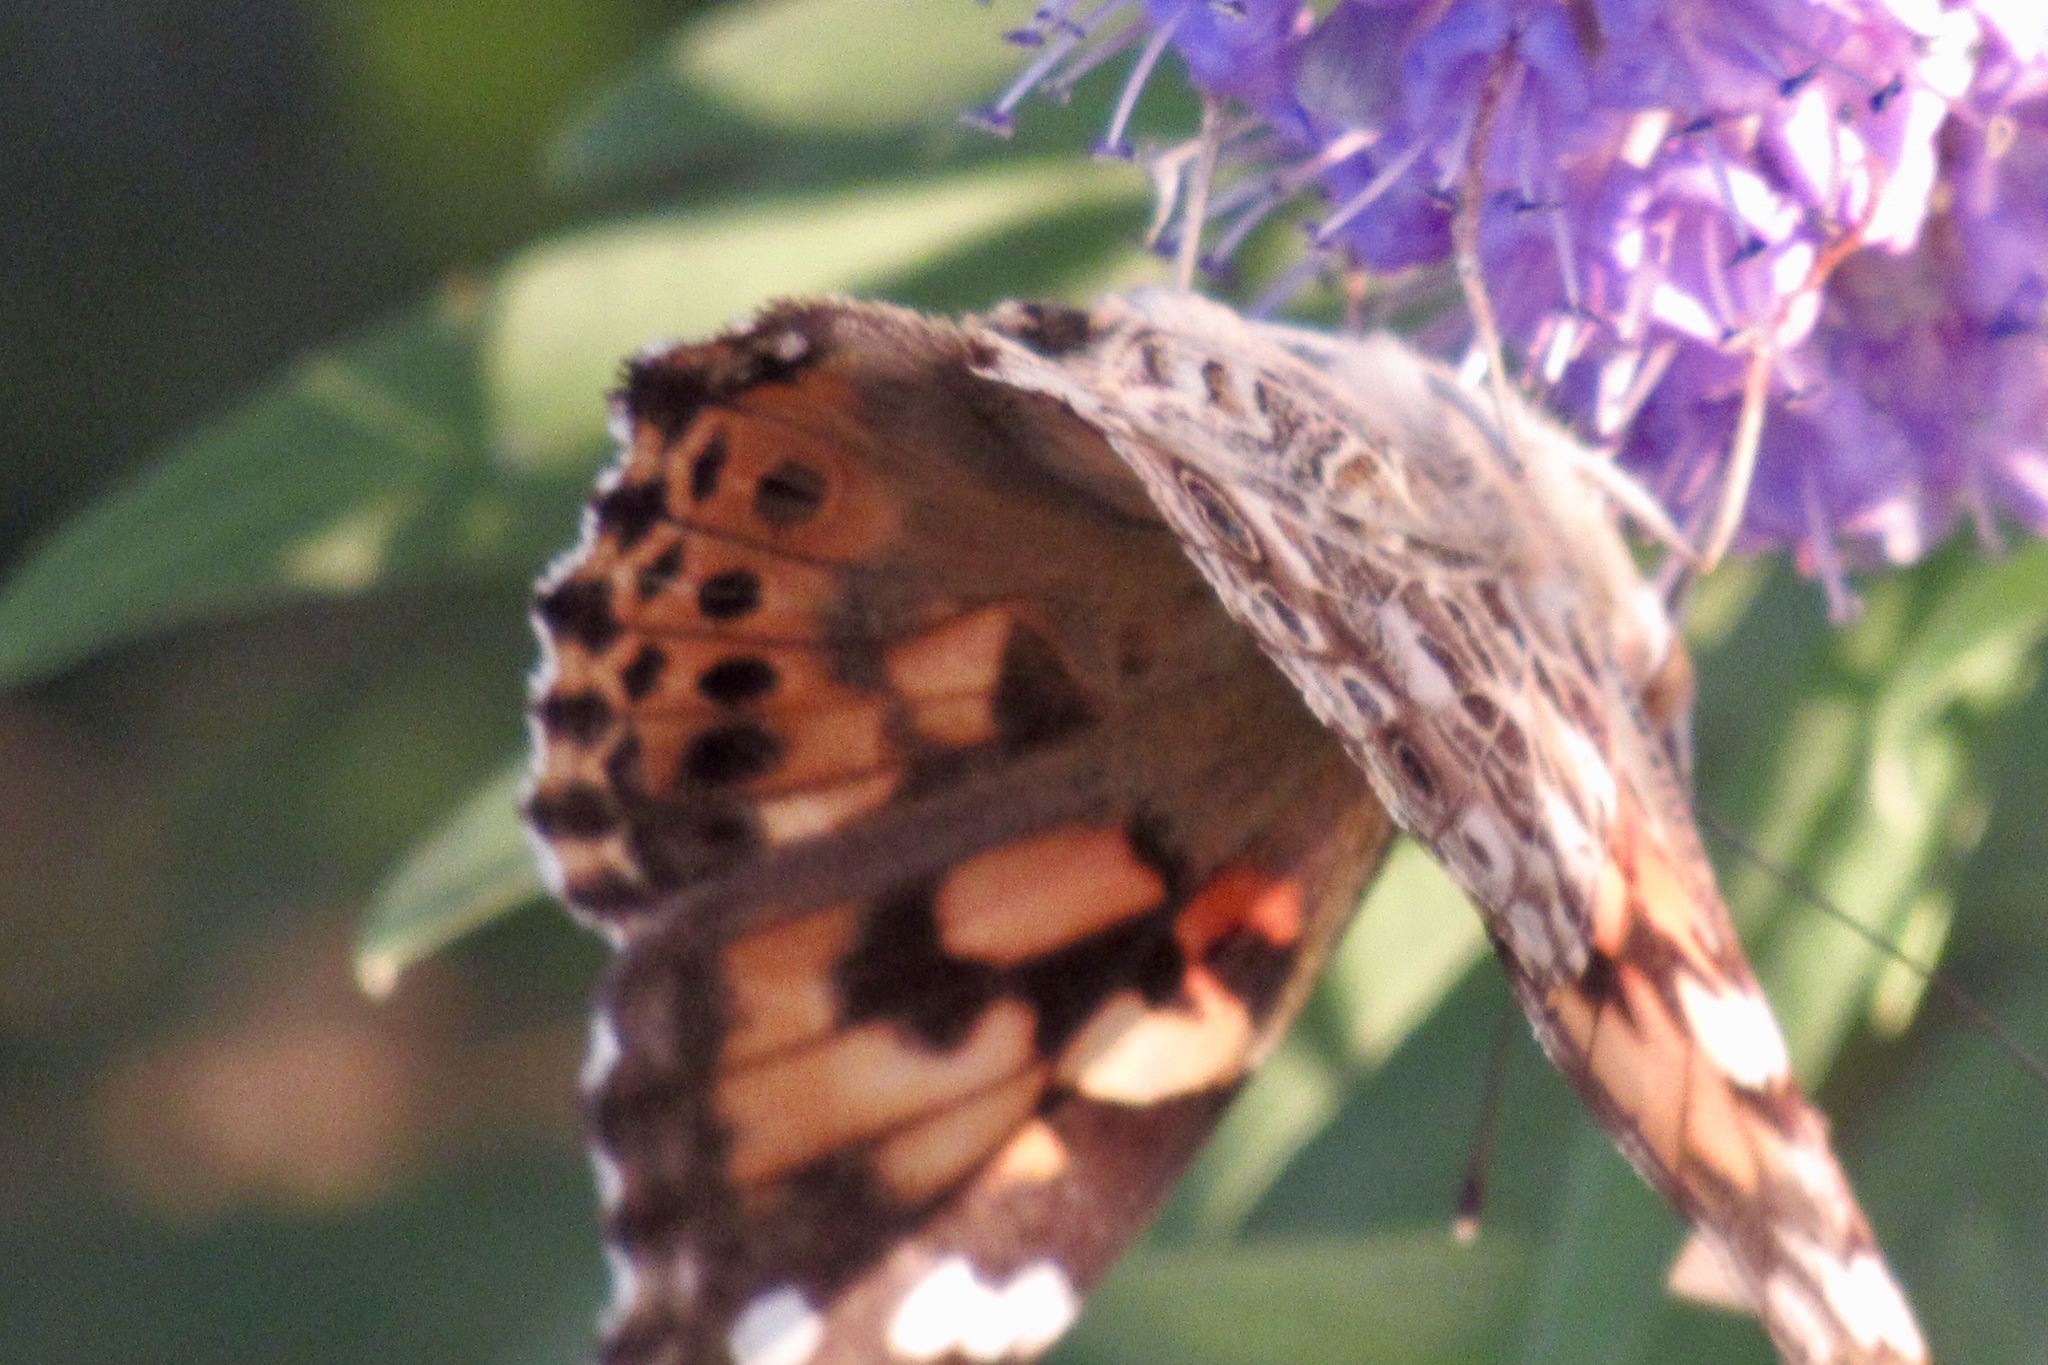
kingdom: Animalia
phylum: Arthropoda
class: Insecta
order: Lepidoptera
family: Nymphalidae
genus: Vanessa
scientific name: Vanessa cardui
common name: Painted lady
